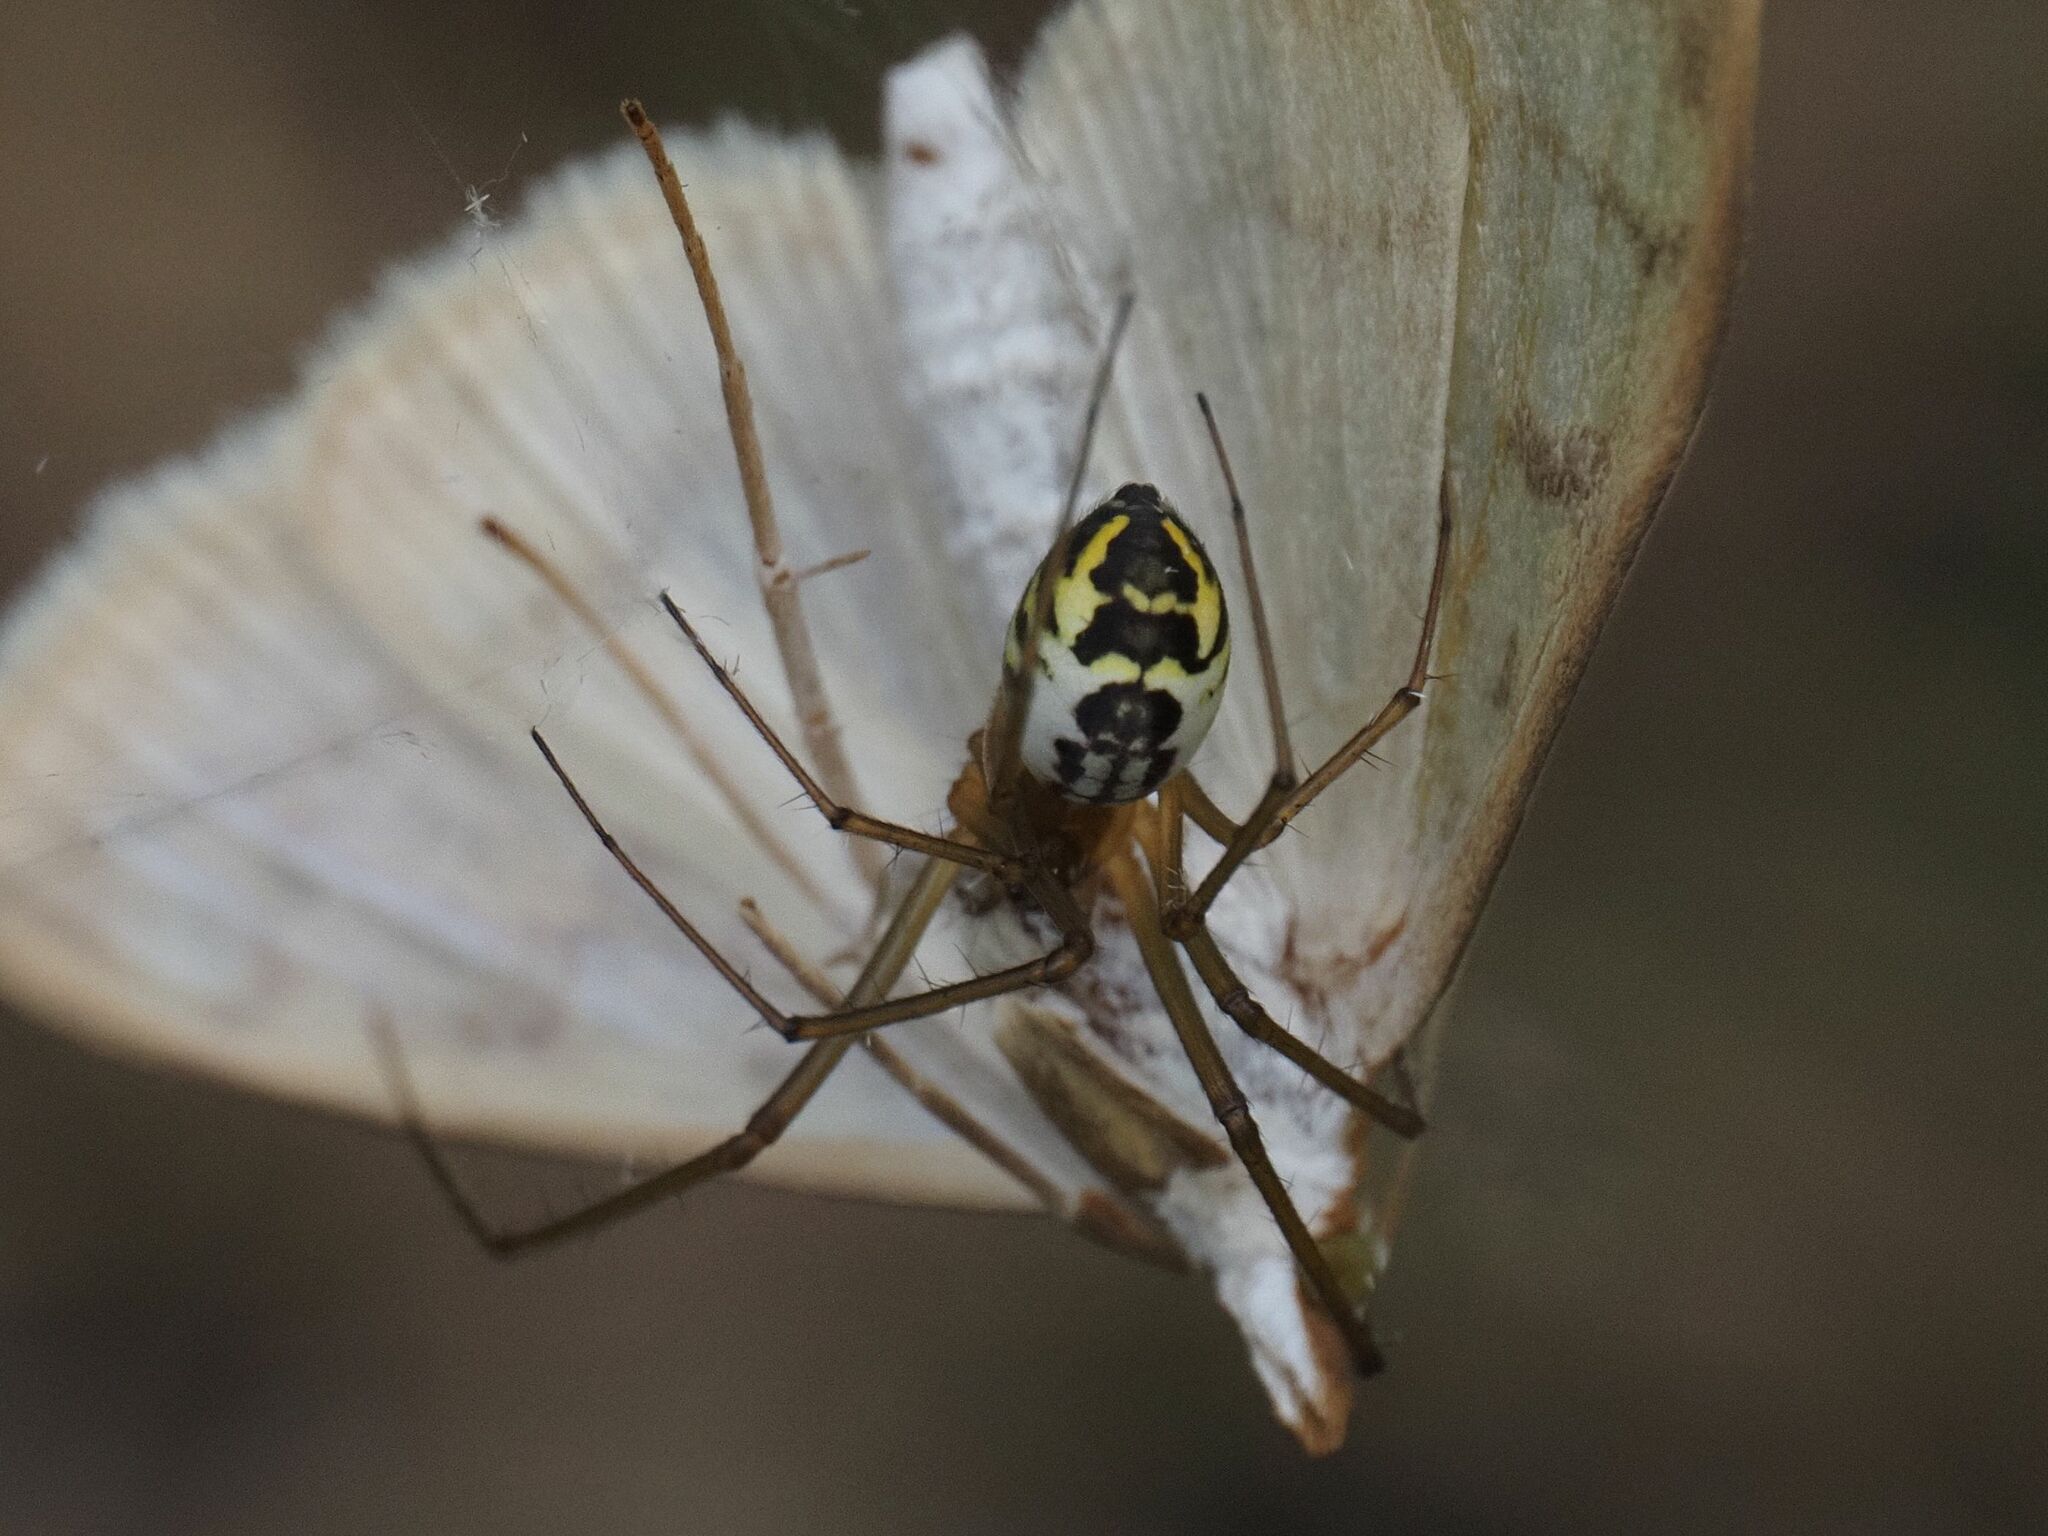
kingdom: Animalia
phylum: Arthropoda
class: Arachnida
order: Araneae
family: Linyphiidae
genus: Neriene
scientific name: Neriene radiata
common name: Filmy dome spider
